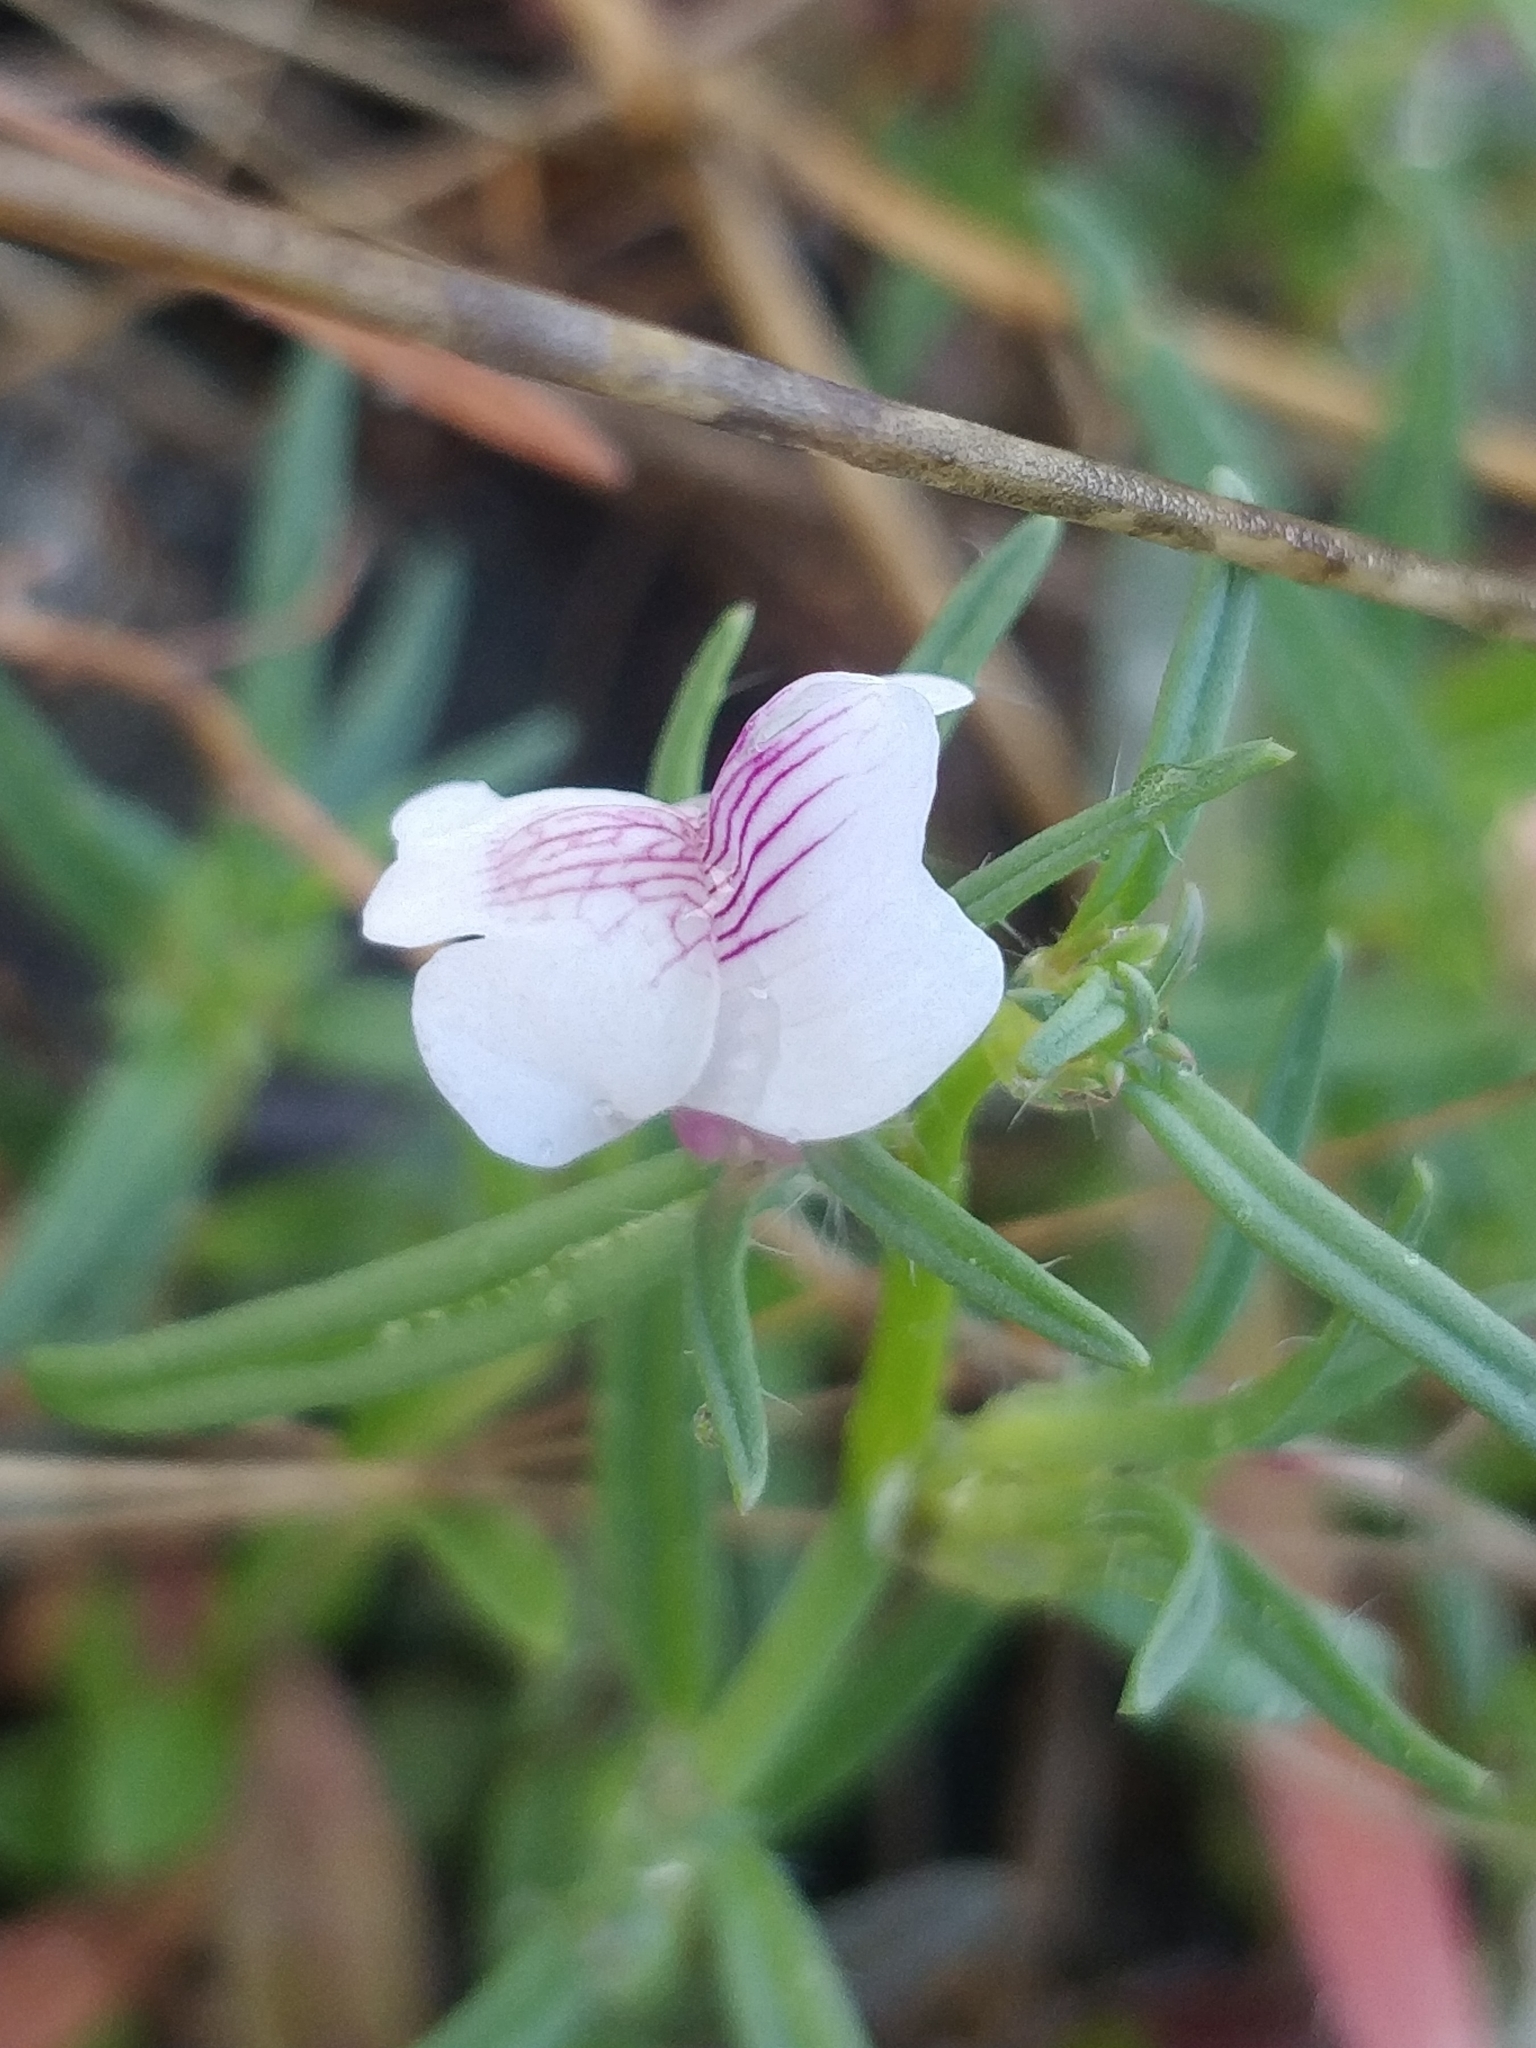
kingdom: Plantae
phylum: Tracheophyta
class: Magnoliopsida
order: Lamiales
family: Plantaginaceae
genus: Misopates
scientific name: Misopates orontium
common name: Weasel's-snout
